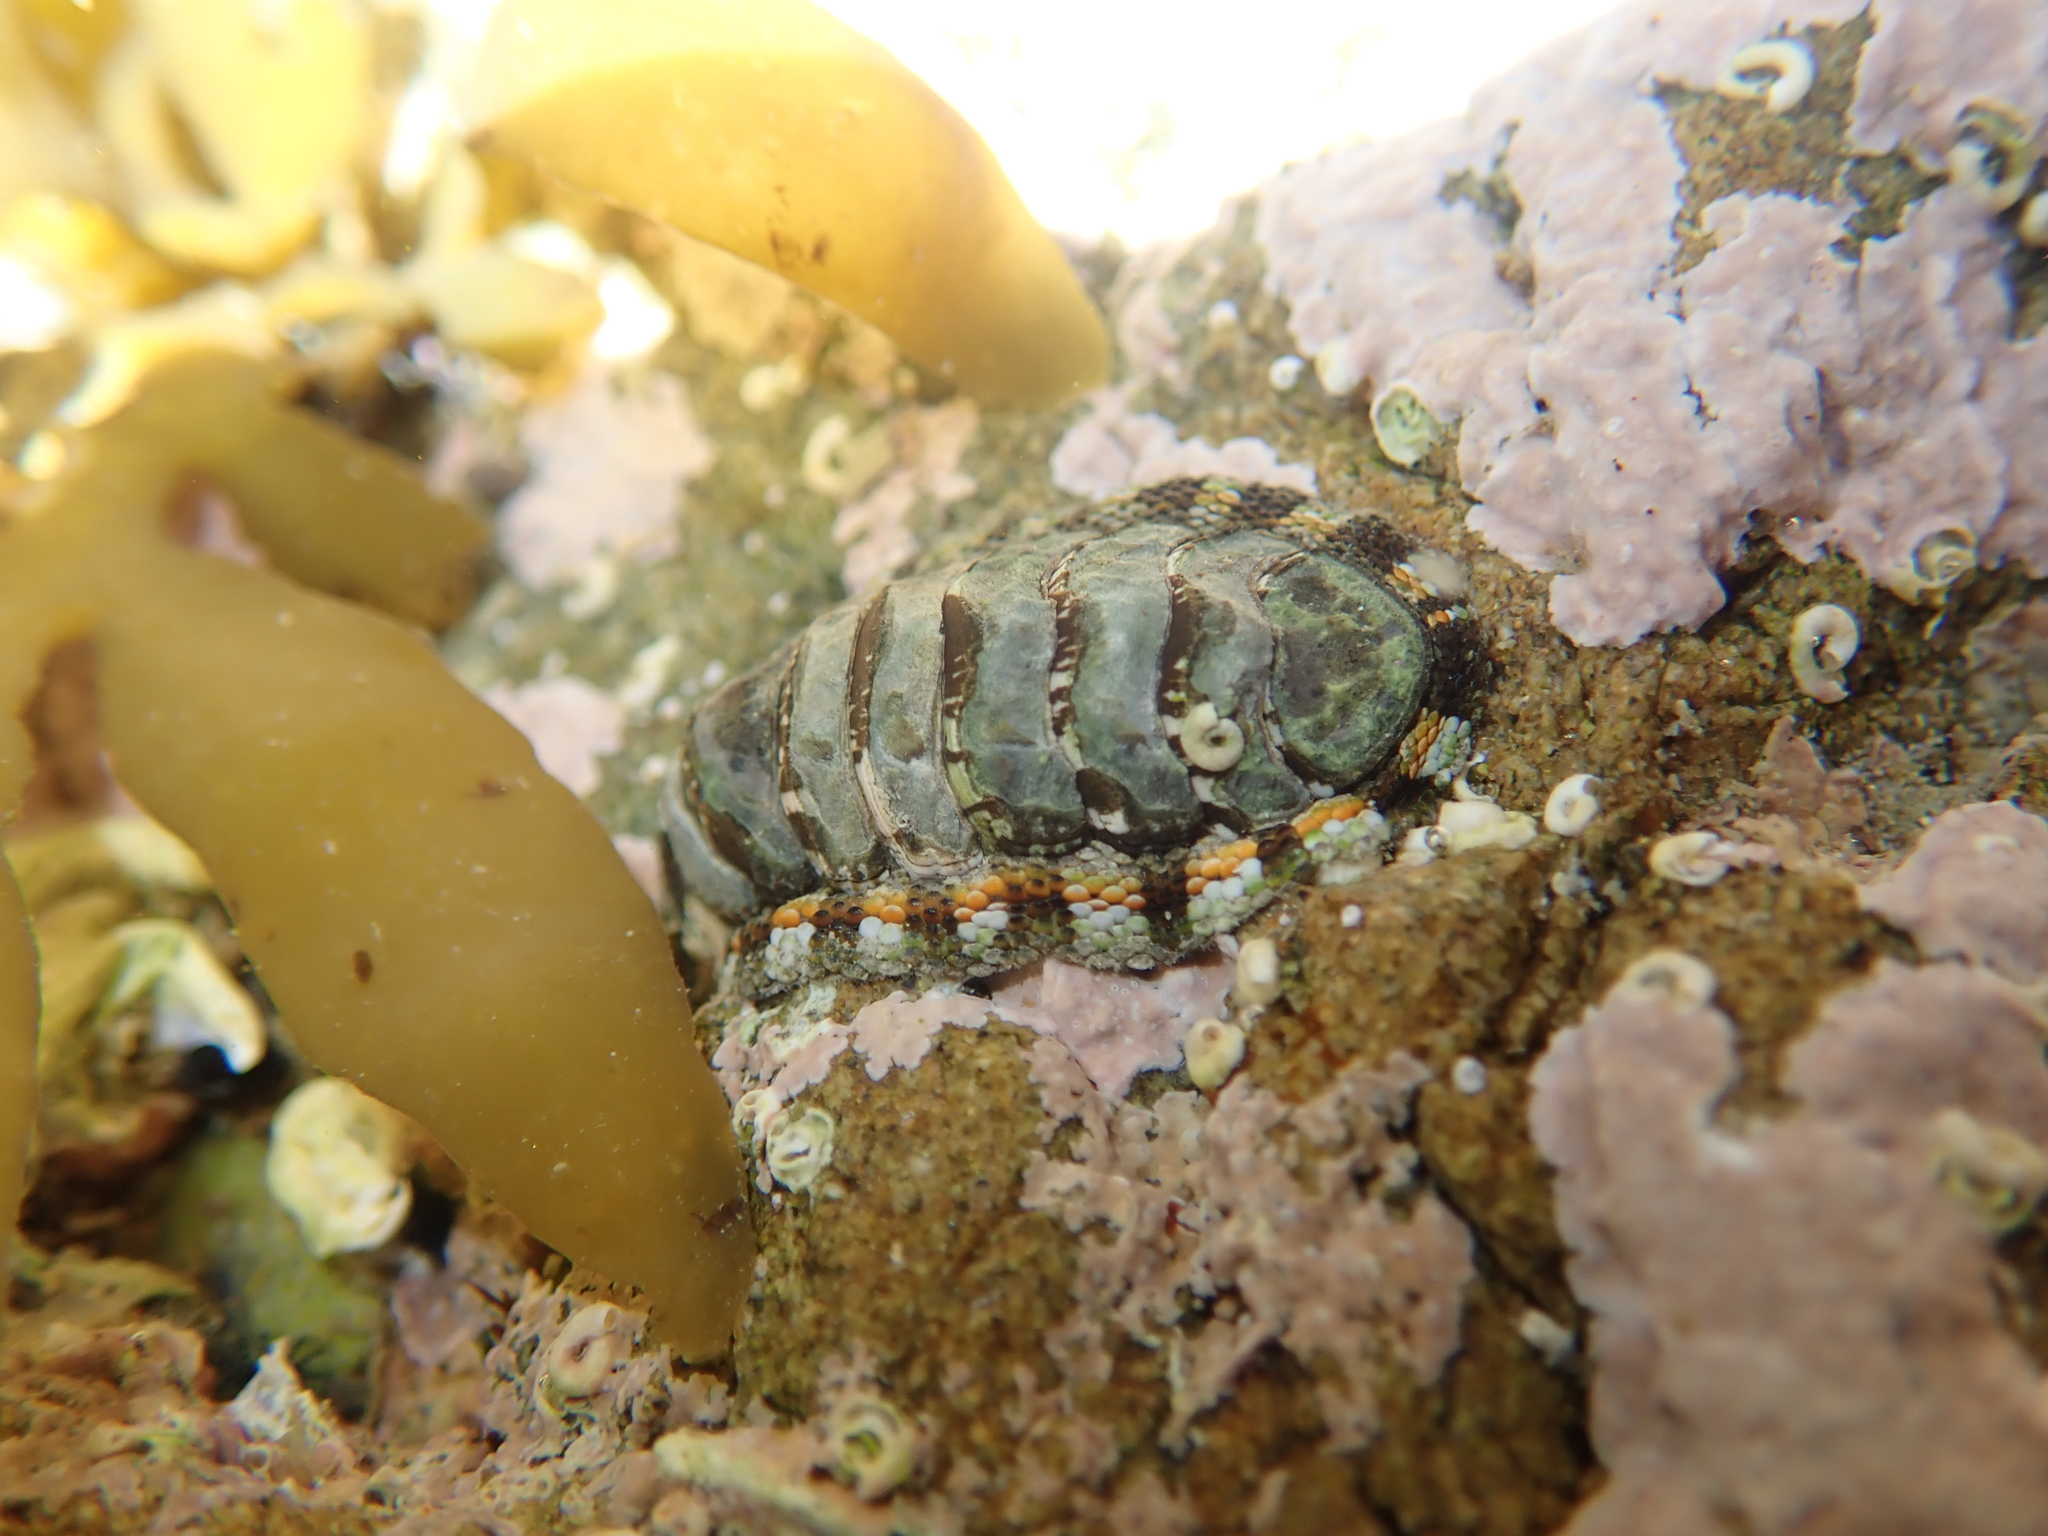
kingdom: Animalia
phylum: Mollusca
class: Polyplacophora
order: Chitonida
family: Chitonidae
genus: Sypharochiton
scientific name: Sypharochiton sinclairi
